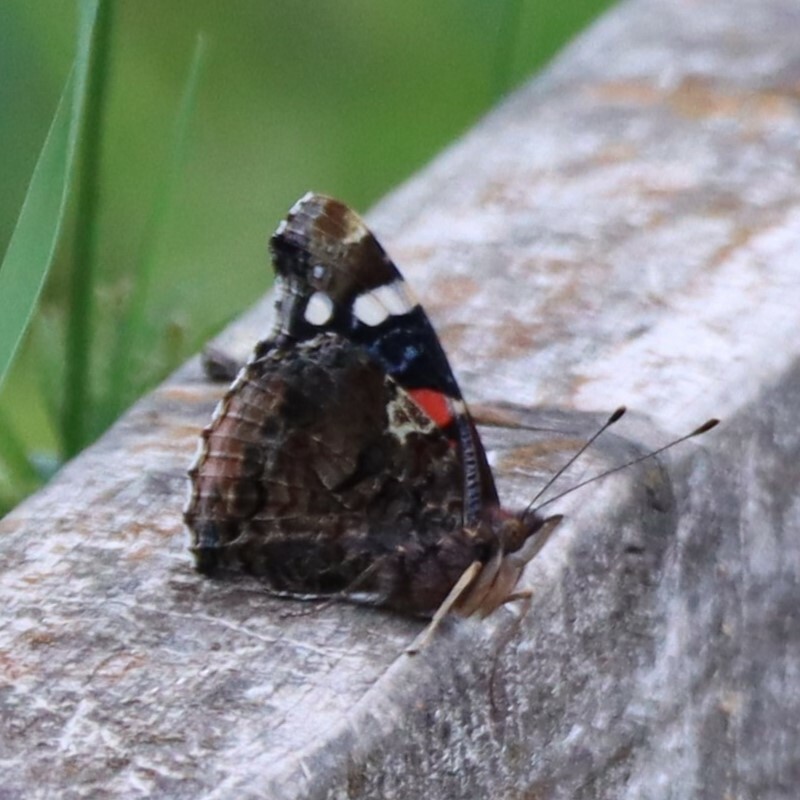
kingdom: Animalia
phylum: Arthropoda
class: Insecta
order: Lepidoptera
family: Nymphalidae
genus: Vanessa
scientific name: Vanessa atalanta
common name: Red admiral
